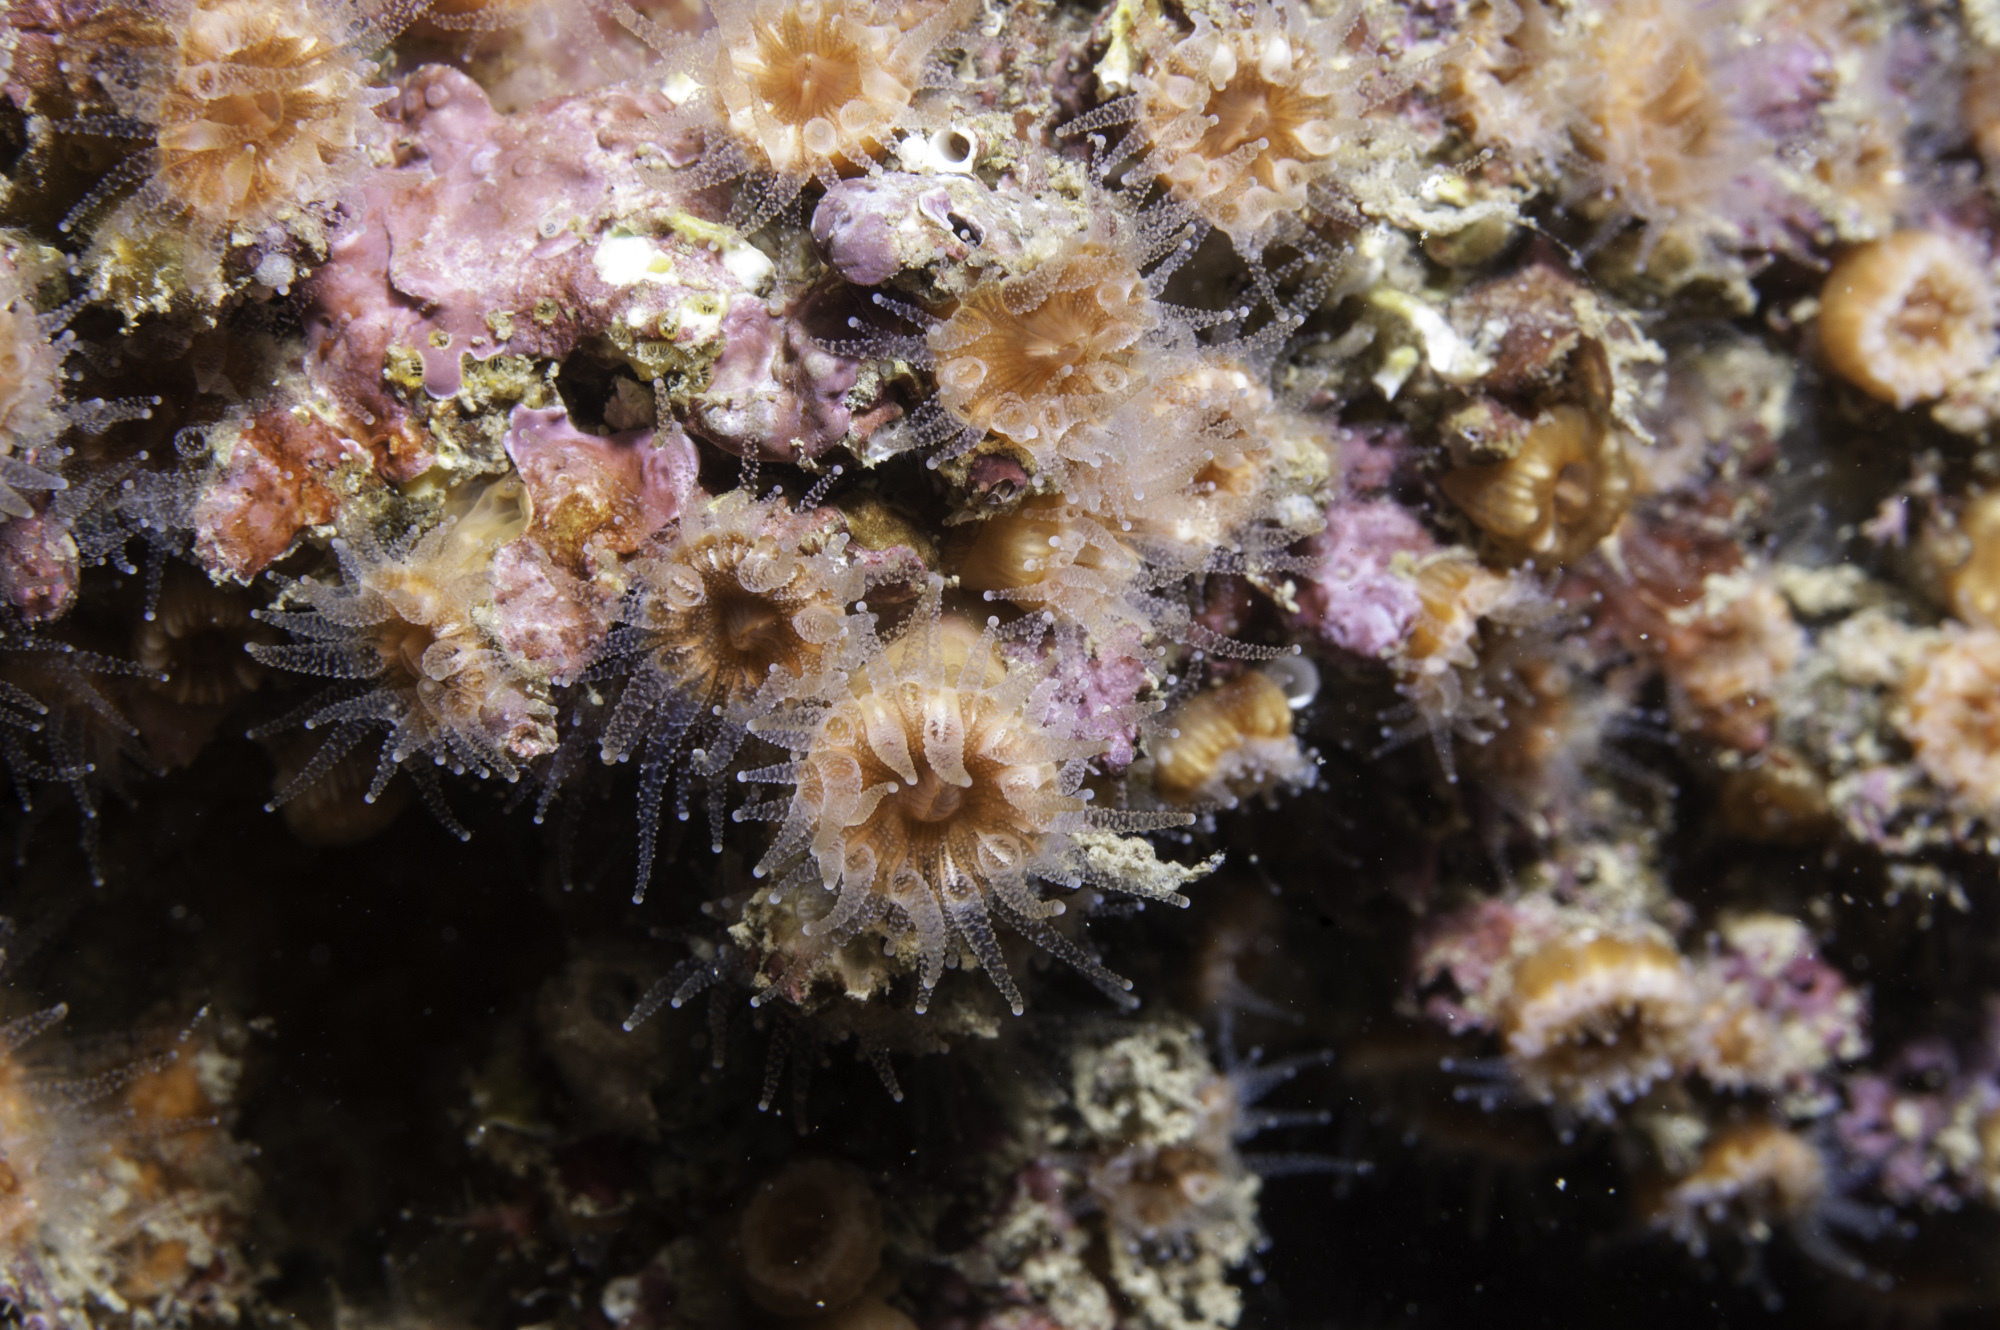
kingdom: Animalia
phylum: Cnidaria
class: Anthozoa
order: Scleractinia
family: Caryophylliidae
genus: Polycyathus
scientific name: Polycyathus muellerae
